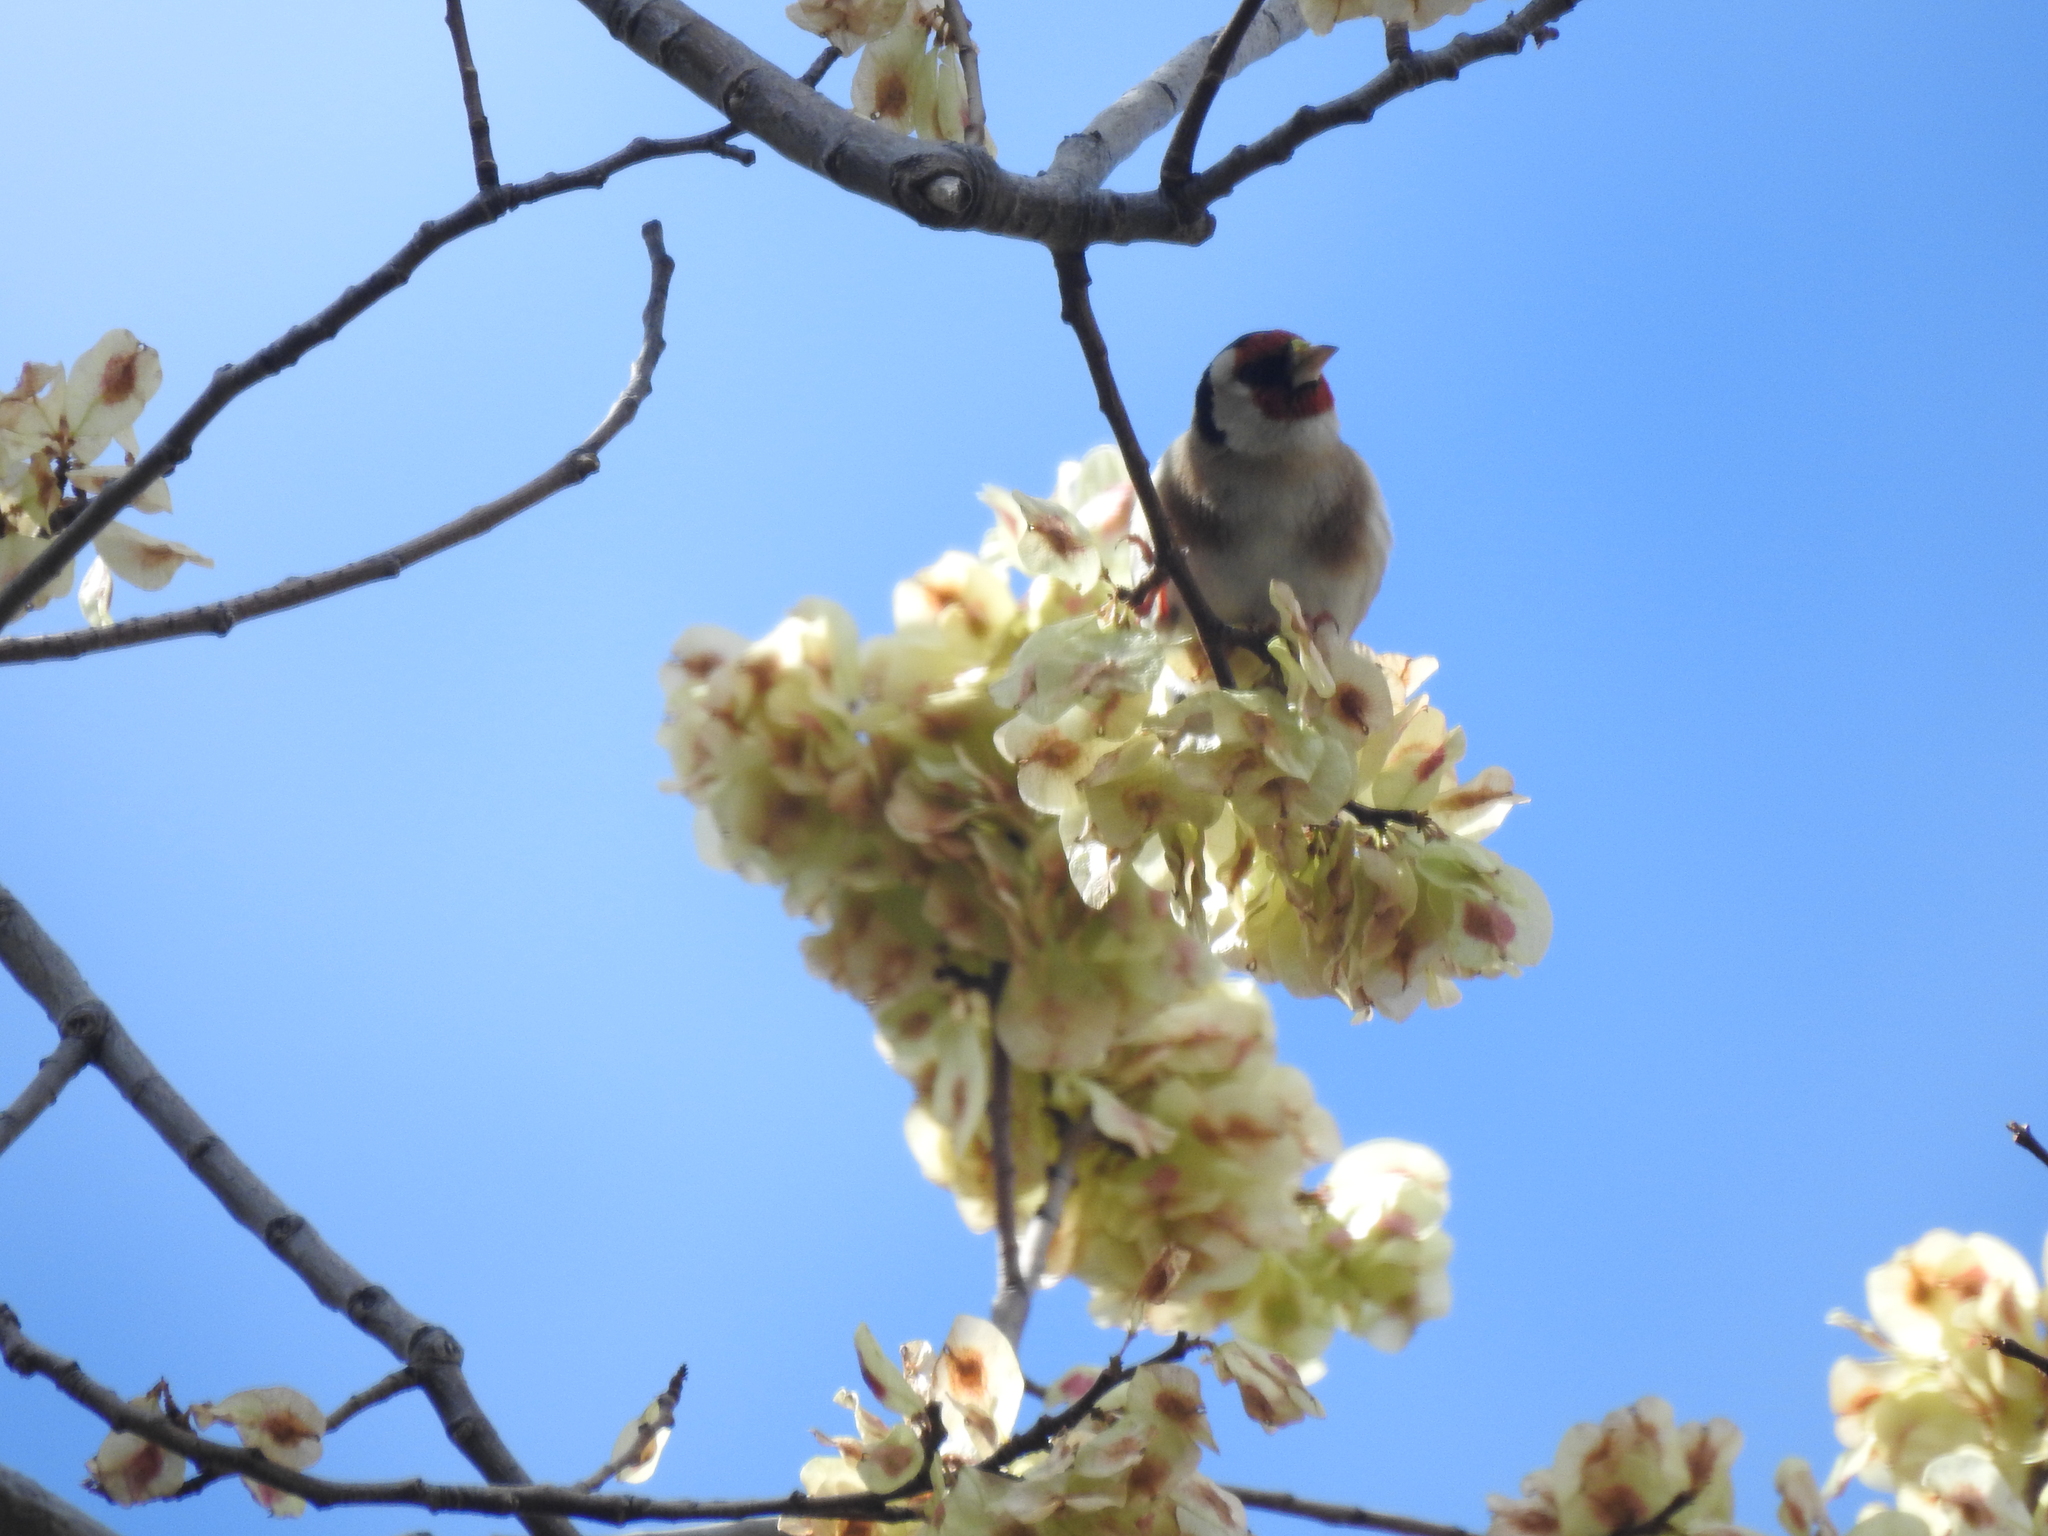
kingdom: Animalia
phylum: Chordata
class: Aves
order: Passeriformes
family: Fringillidae
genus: Carduelis
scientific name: Carduelis carduelis
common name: European goldfinch
